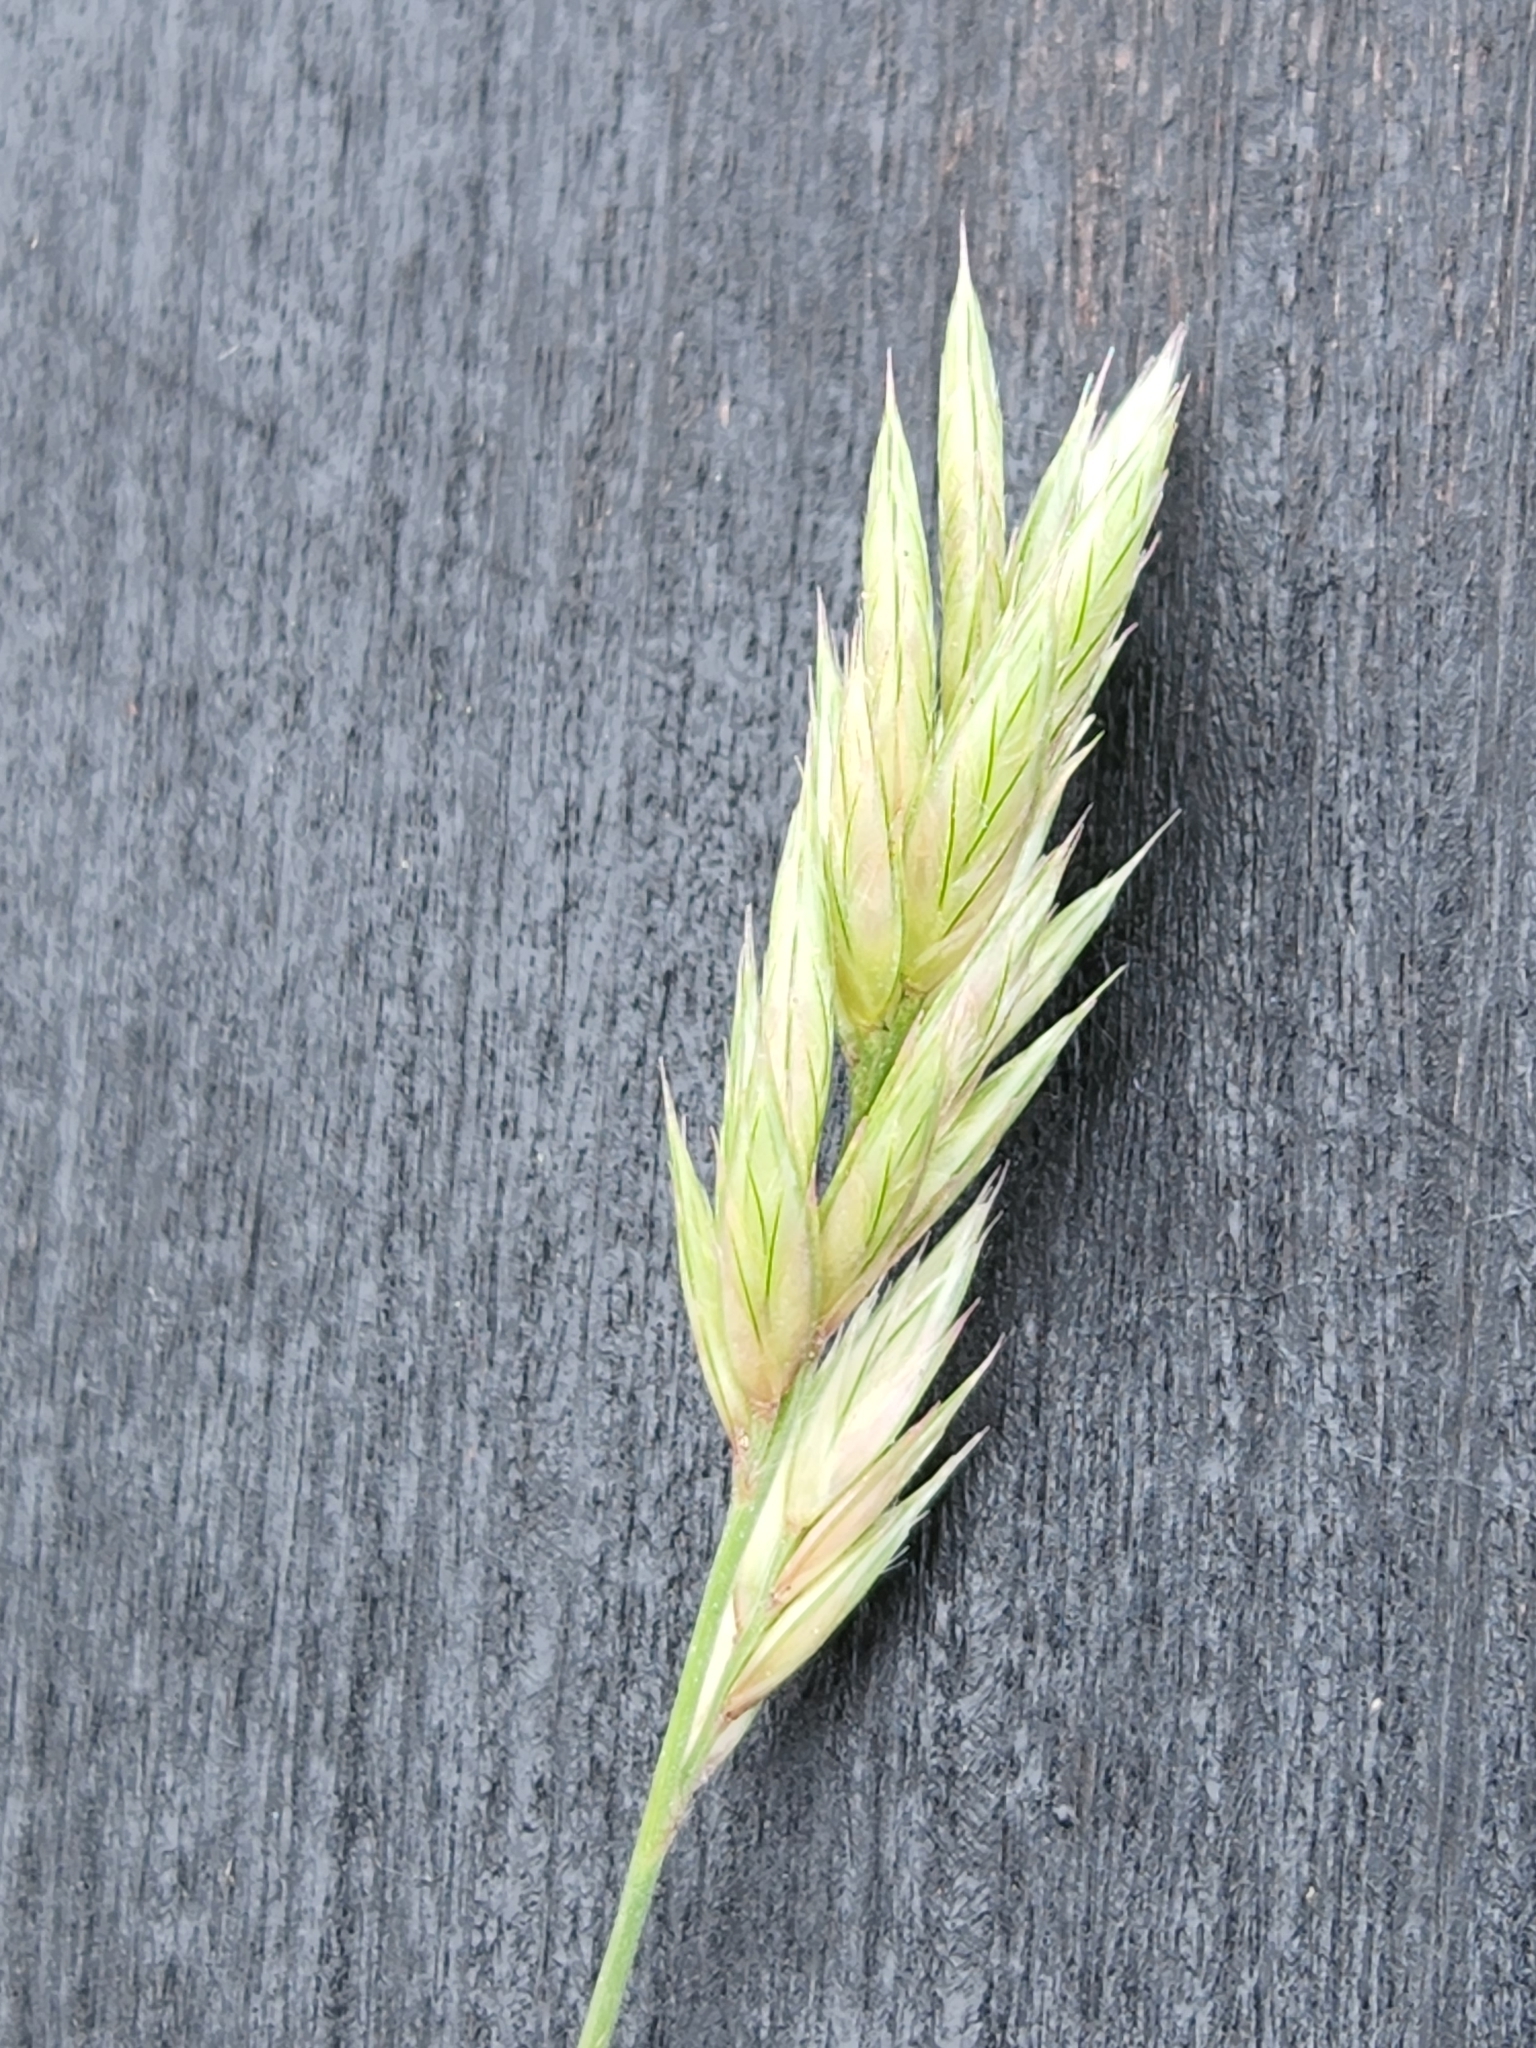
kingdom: Plantae
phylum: Tracheophyta
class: Liliopsida
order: Poales
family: Poaceae
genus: Erioneuron
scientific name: Erioneuron pilosum
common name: Hairy woolly grass
